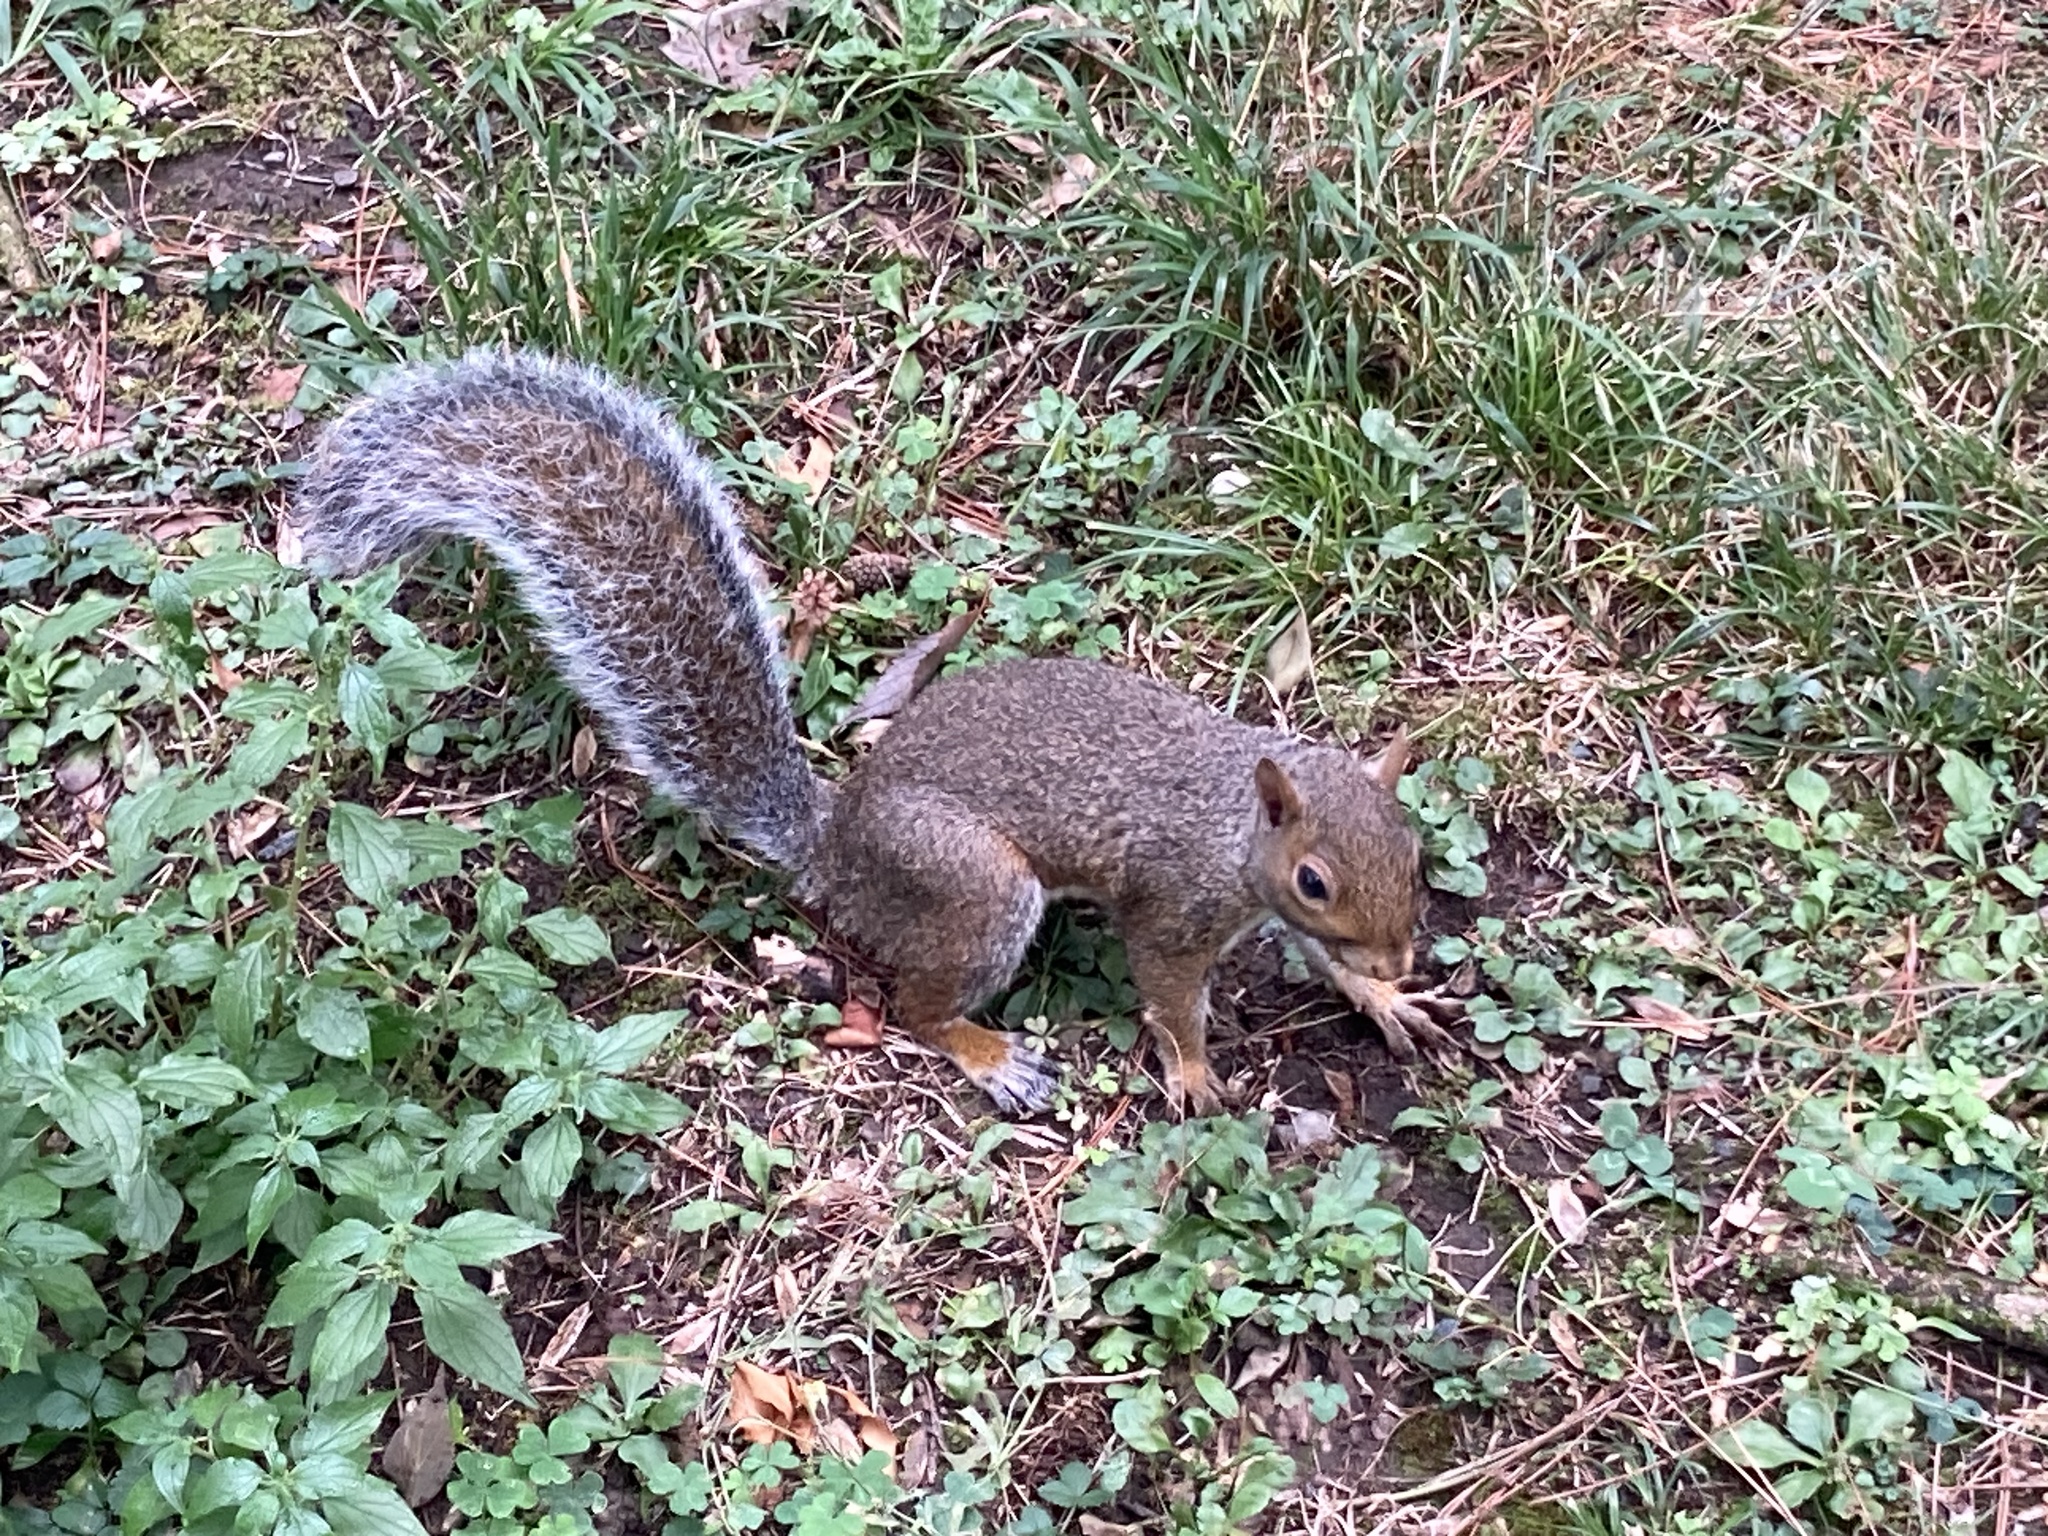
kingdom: Animalia
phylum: Chordata
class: Mammalia
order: Rodentia
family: Sciuridae
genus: Sciurus
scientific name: Sciurus carolinensis
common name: Eastern gray squirrel
